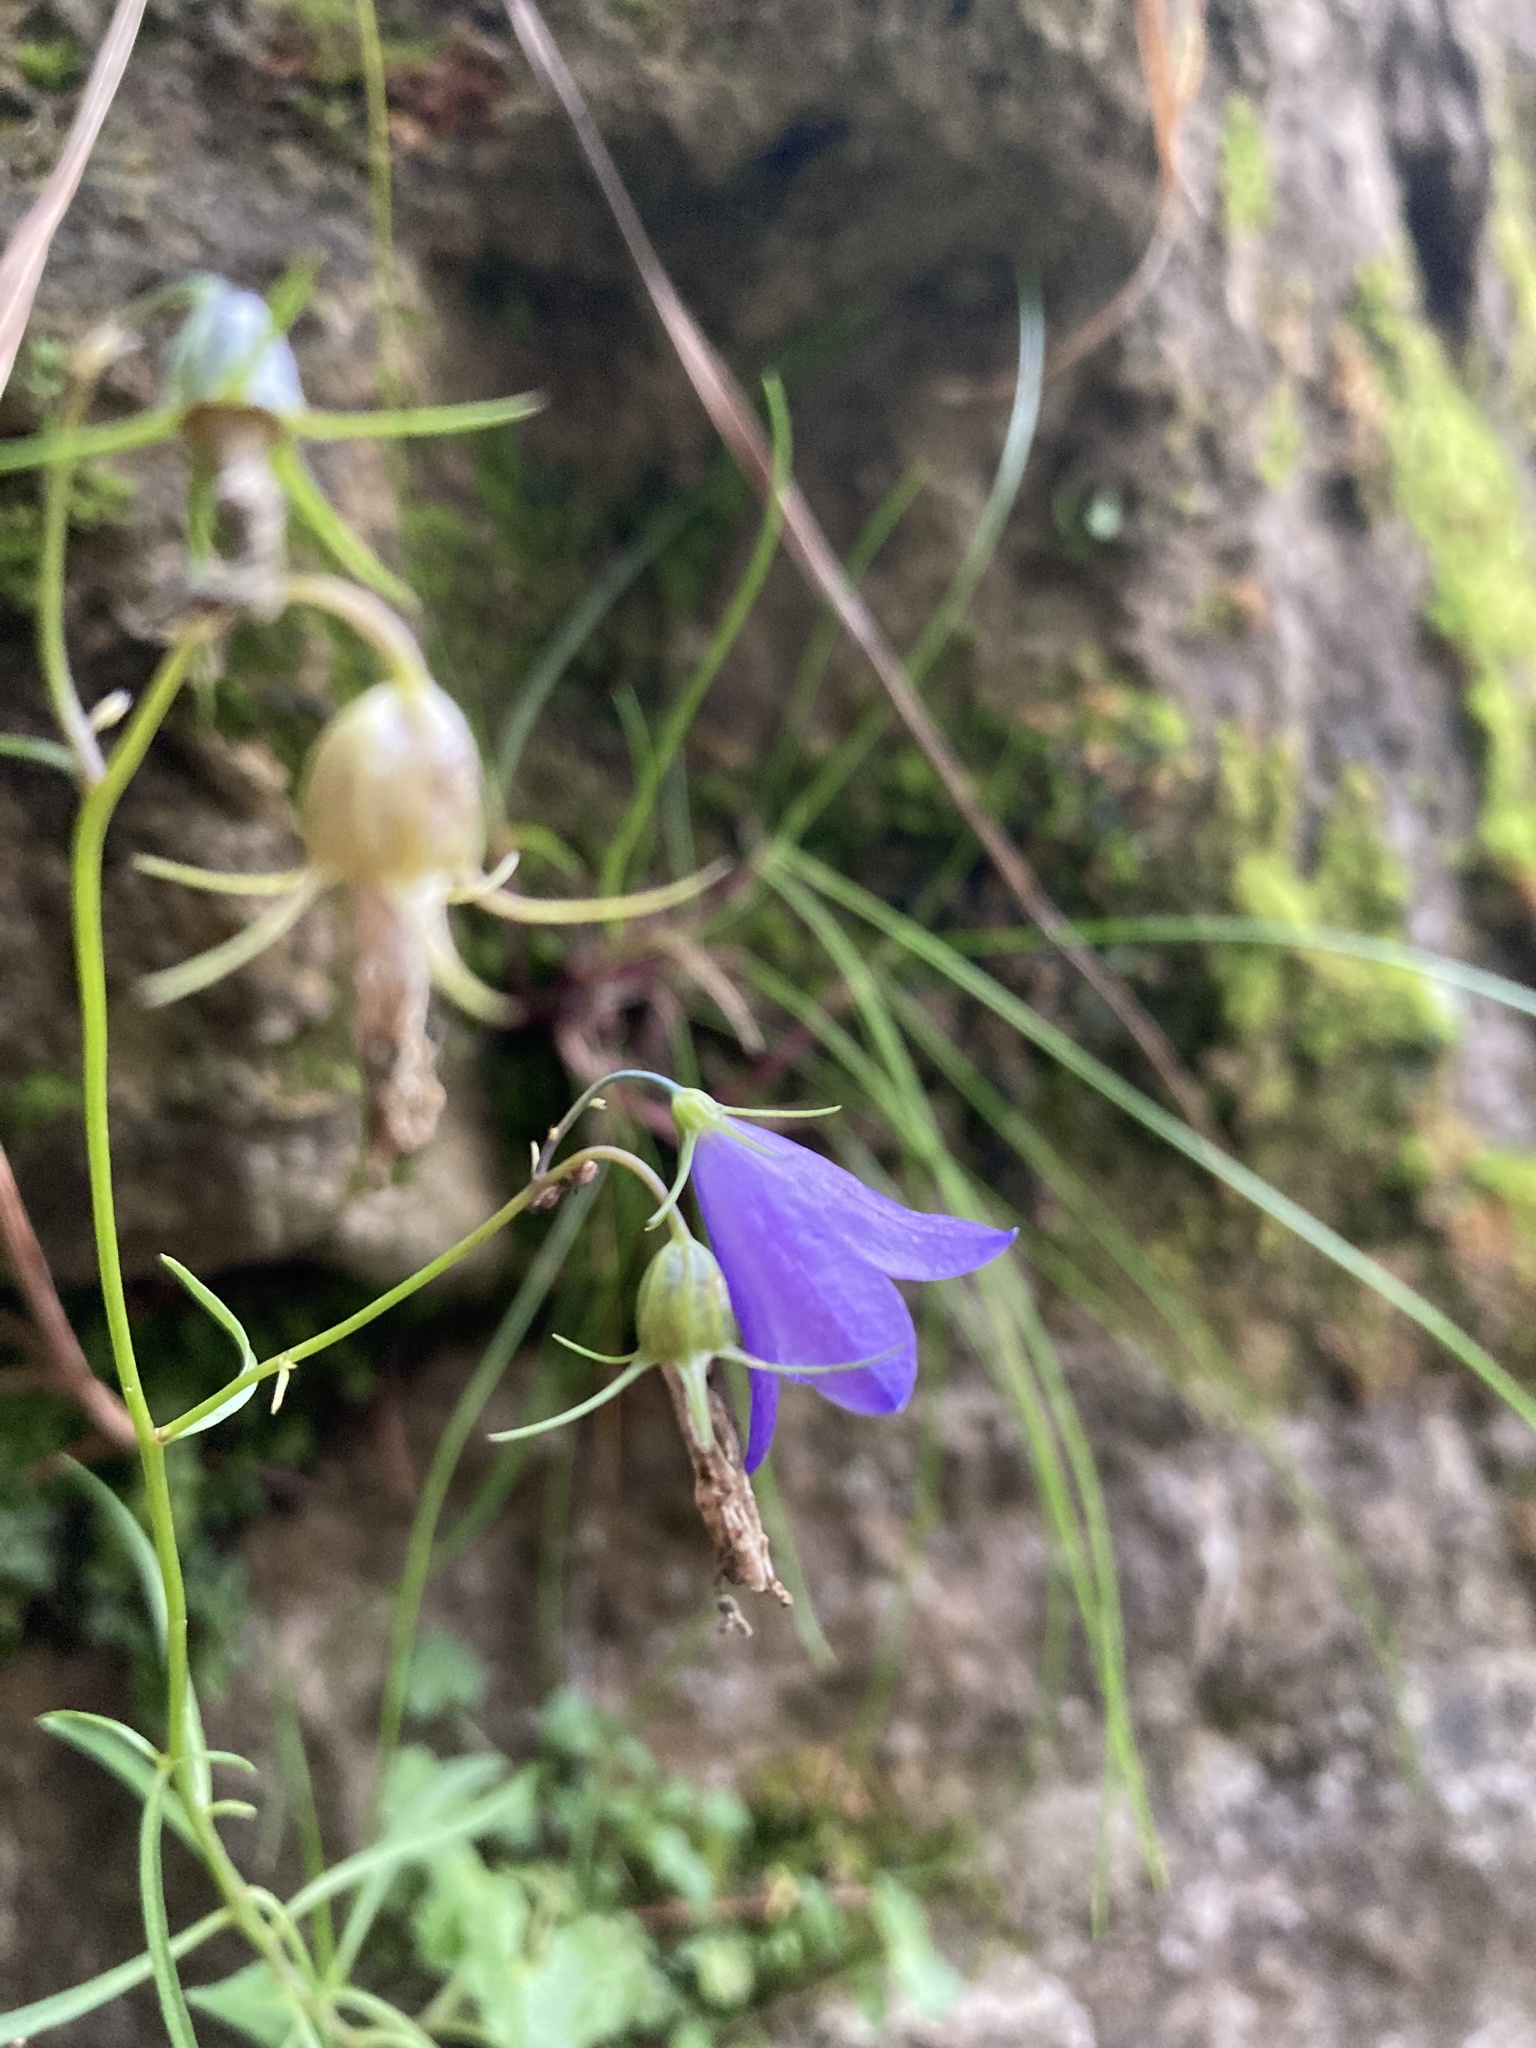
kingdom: Plantae
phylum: Tracheophyta
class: Magnoliopsida
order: Asterales
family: Campanulaceae
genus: Campanula
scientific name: Campanula rotundifolia
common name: Harebell
